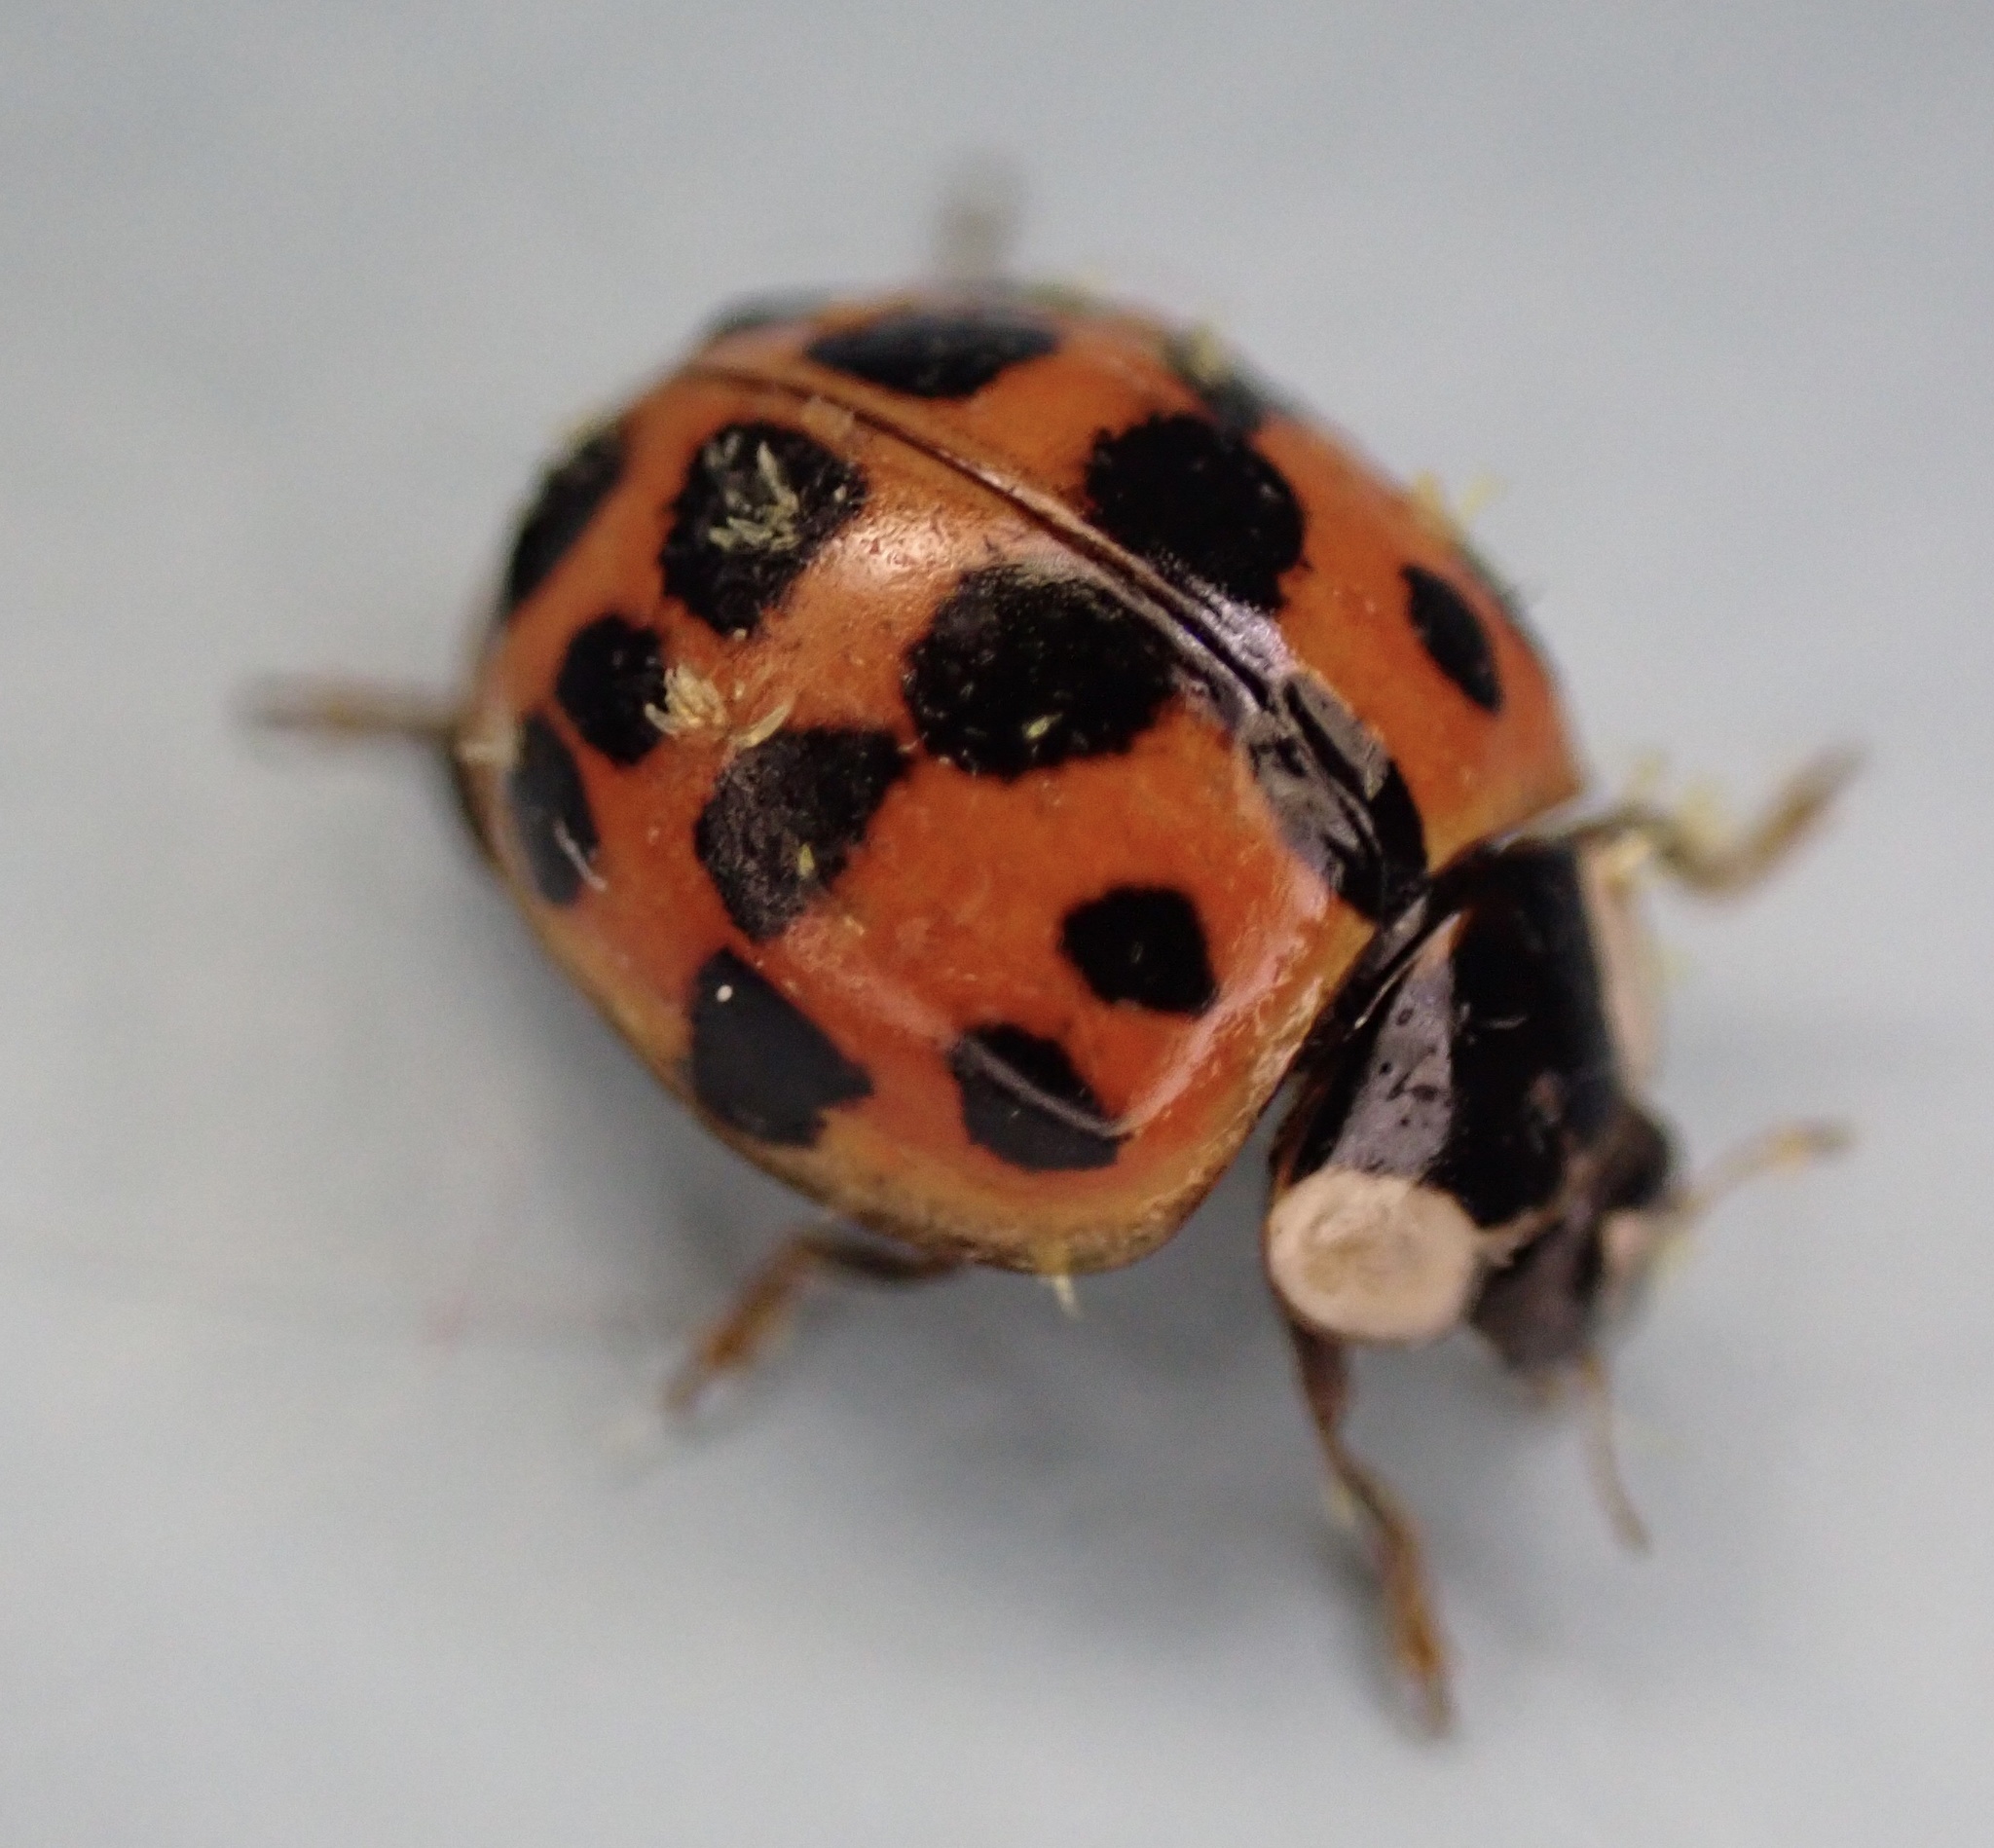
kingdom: Animalia
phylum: Arthropoda
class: Insecta
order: Coleoptera
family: Coccinellidae
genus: Harmonia
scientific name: Harmonia axyridis
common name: Harlequin ladybird
